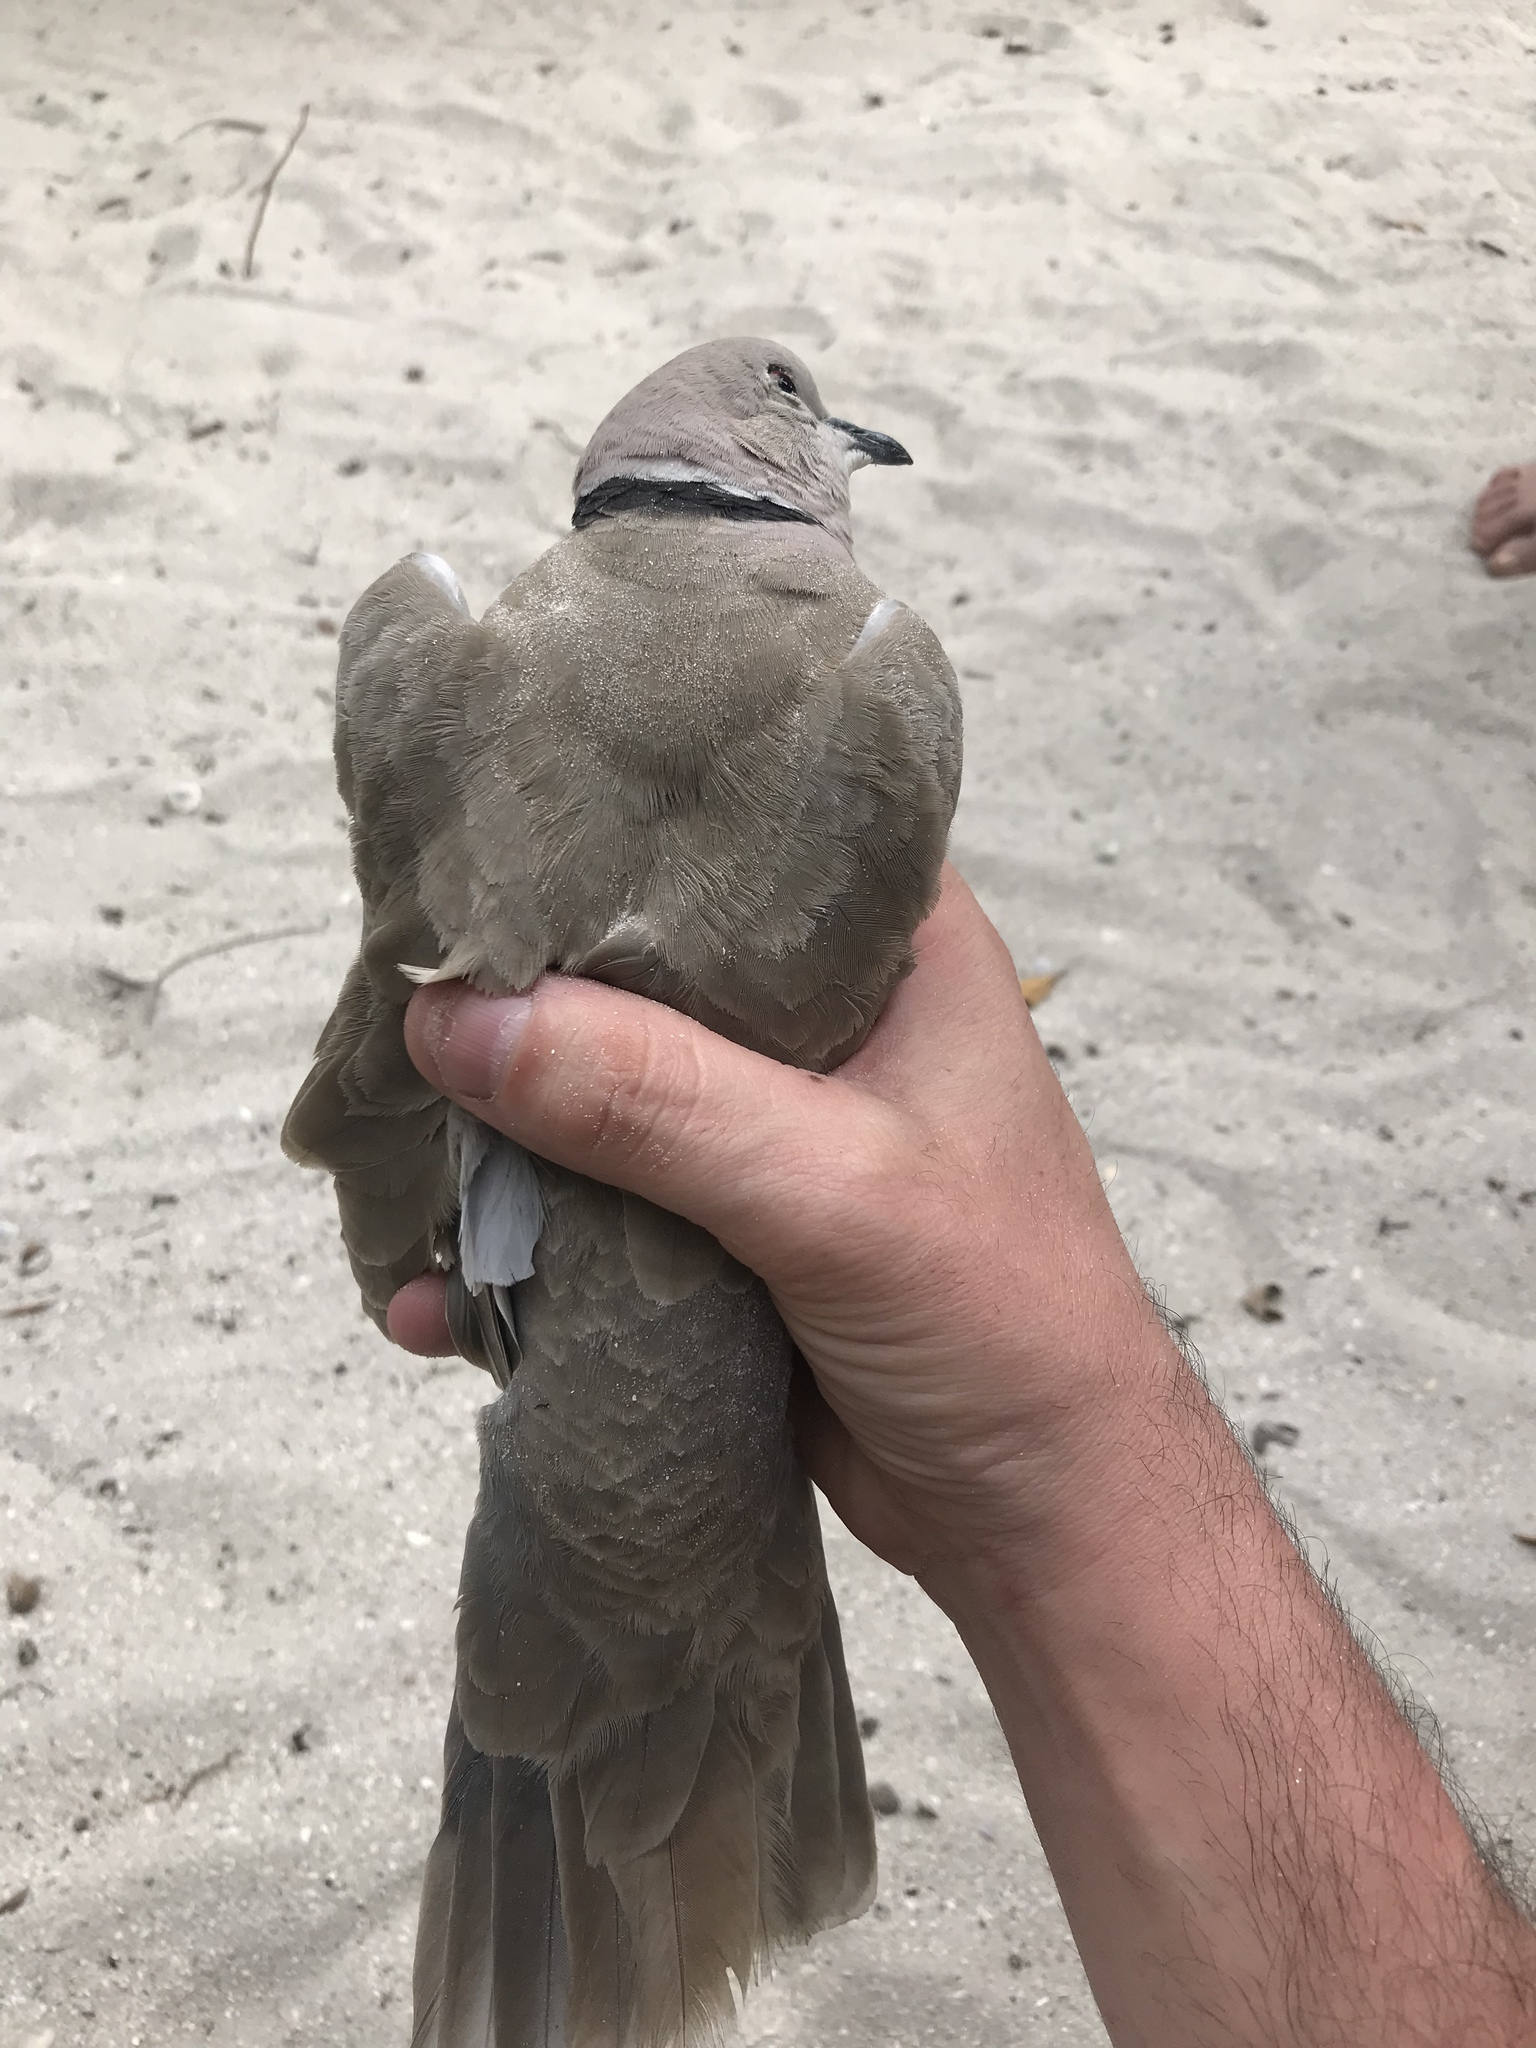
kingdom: Animalia
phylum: Chordata
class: Aves
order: Columbiformes
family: Columbidae
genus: Streptopelia
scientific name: Streptopelia decaocto
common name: Eurasian collared dove
